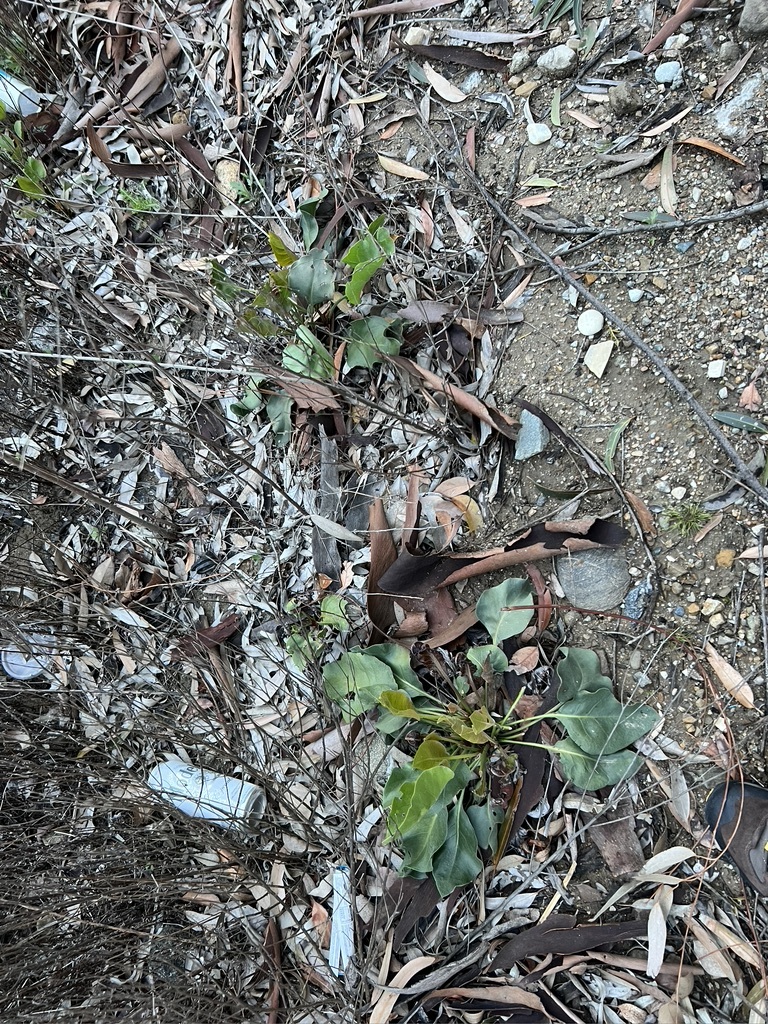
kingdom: Plantae
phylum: Tracheophyta
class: Magnoliopsida
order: Caryophyllales
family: Plumbaginaceae
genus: Limonium
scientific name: Limonium perezii
